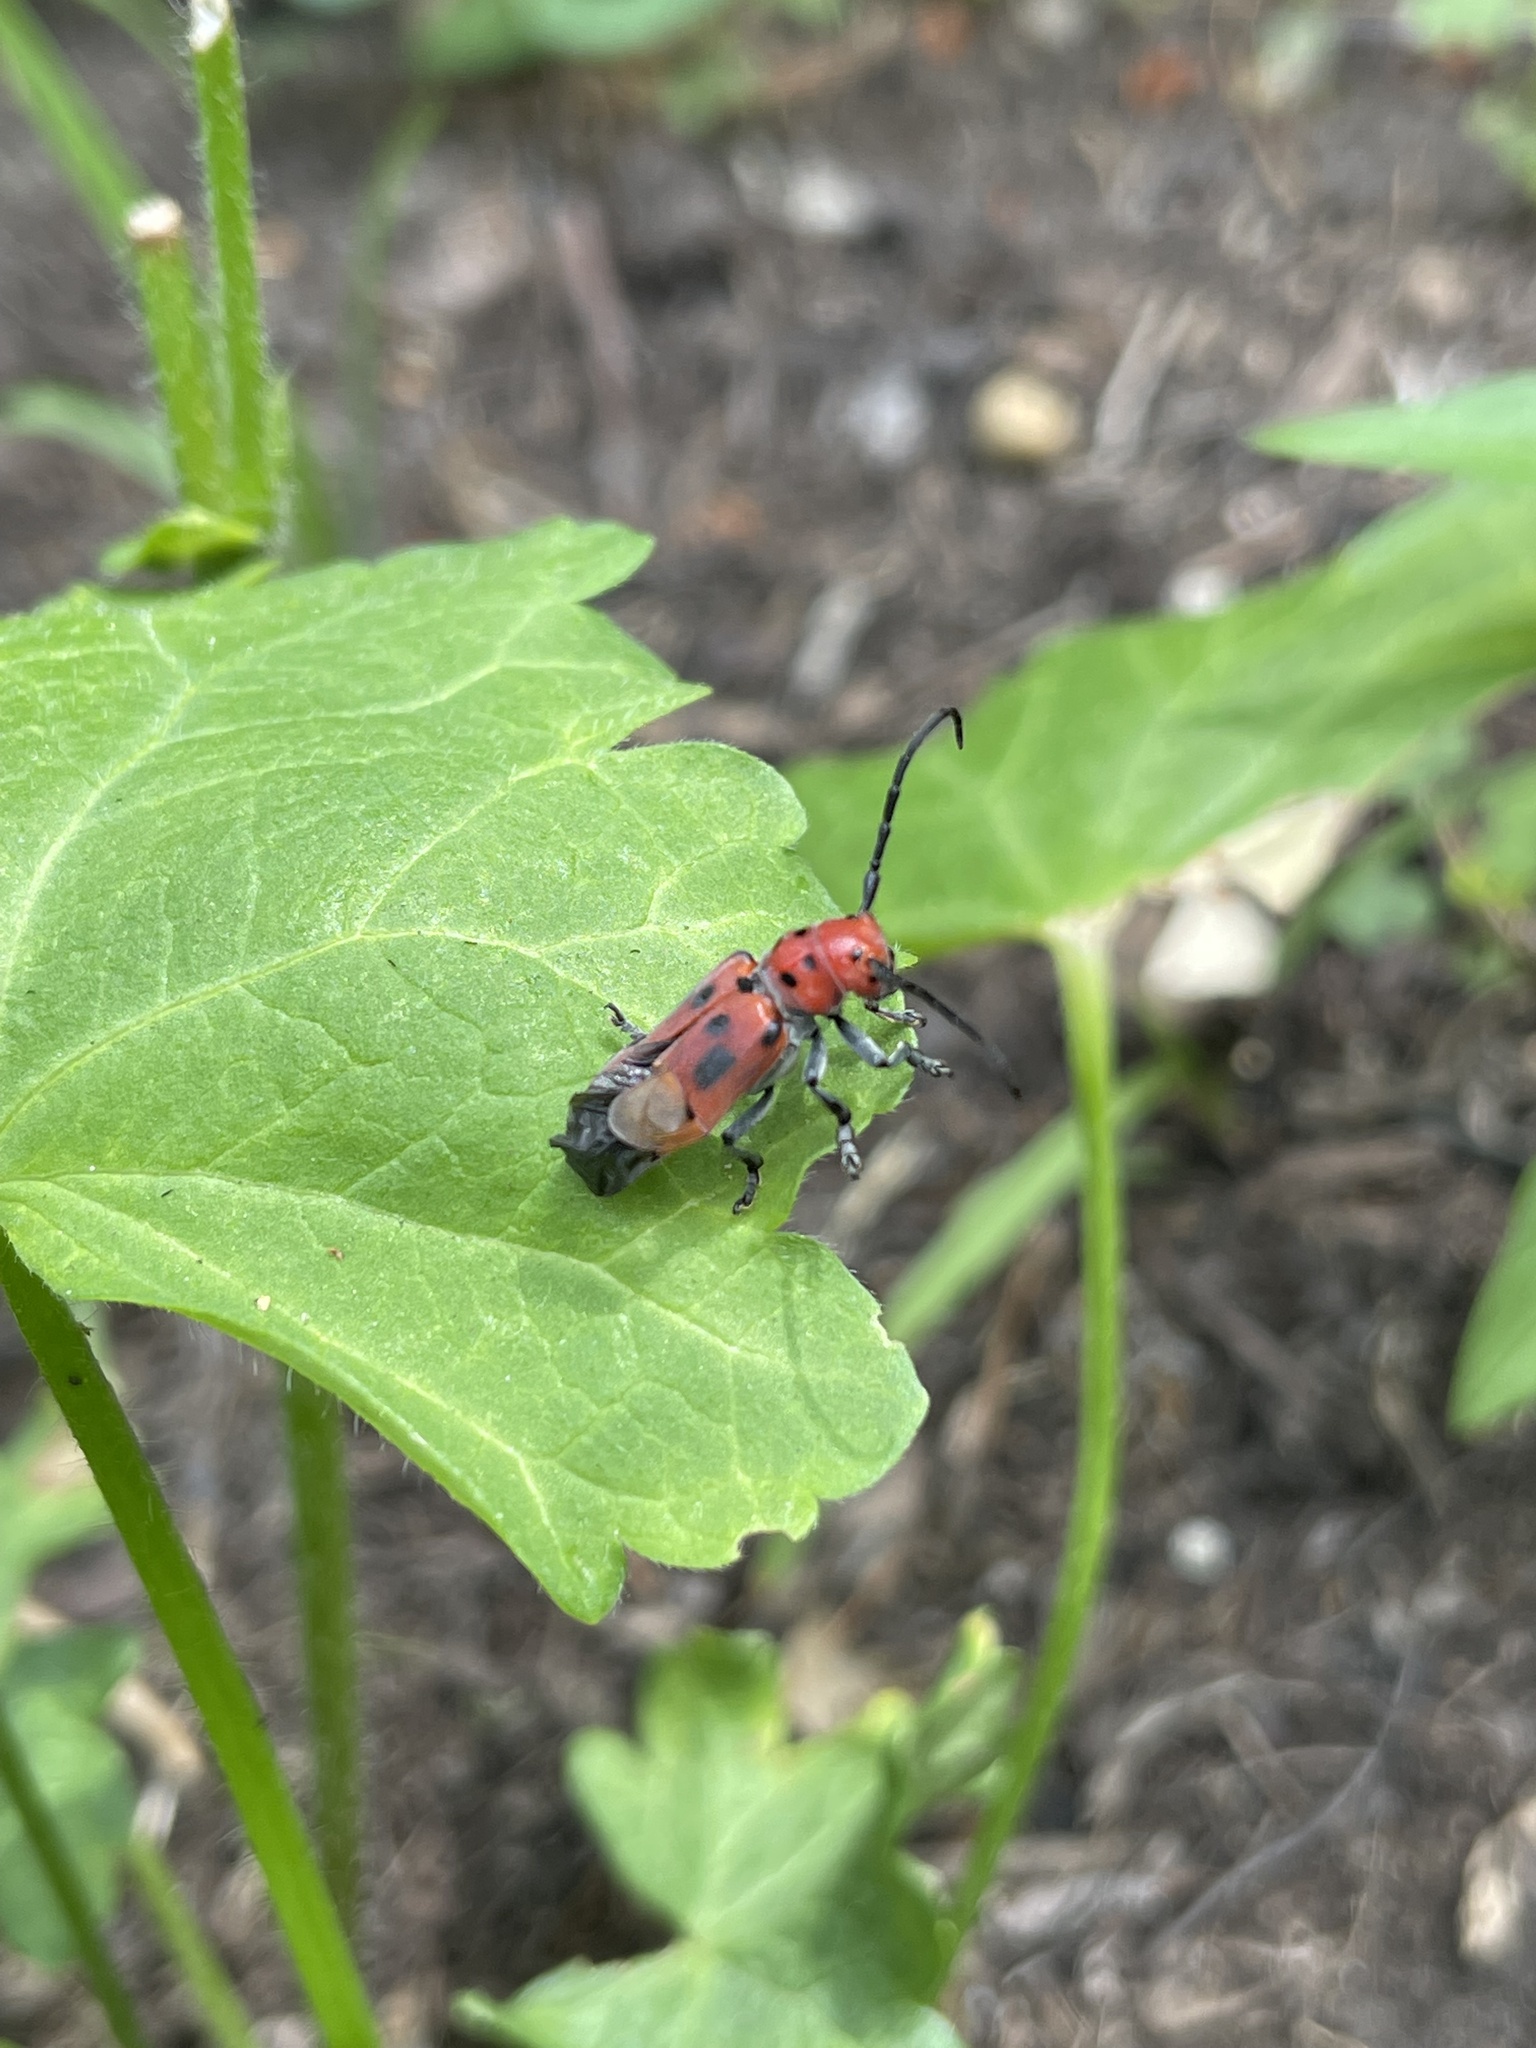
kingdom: Animalia
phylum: Arthropoda
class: Insecta
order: Coleoptera
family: Cerambycidae
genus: Tetraopes
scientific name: Tetraopes tetrophthalmus
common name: Red milkweed beetle
